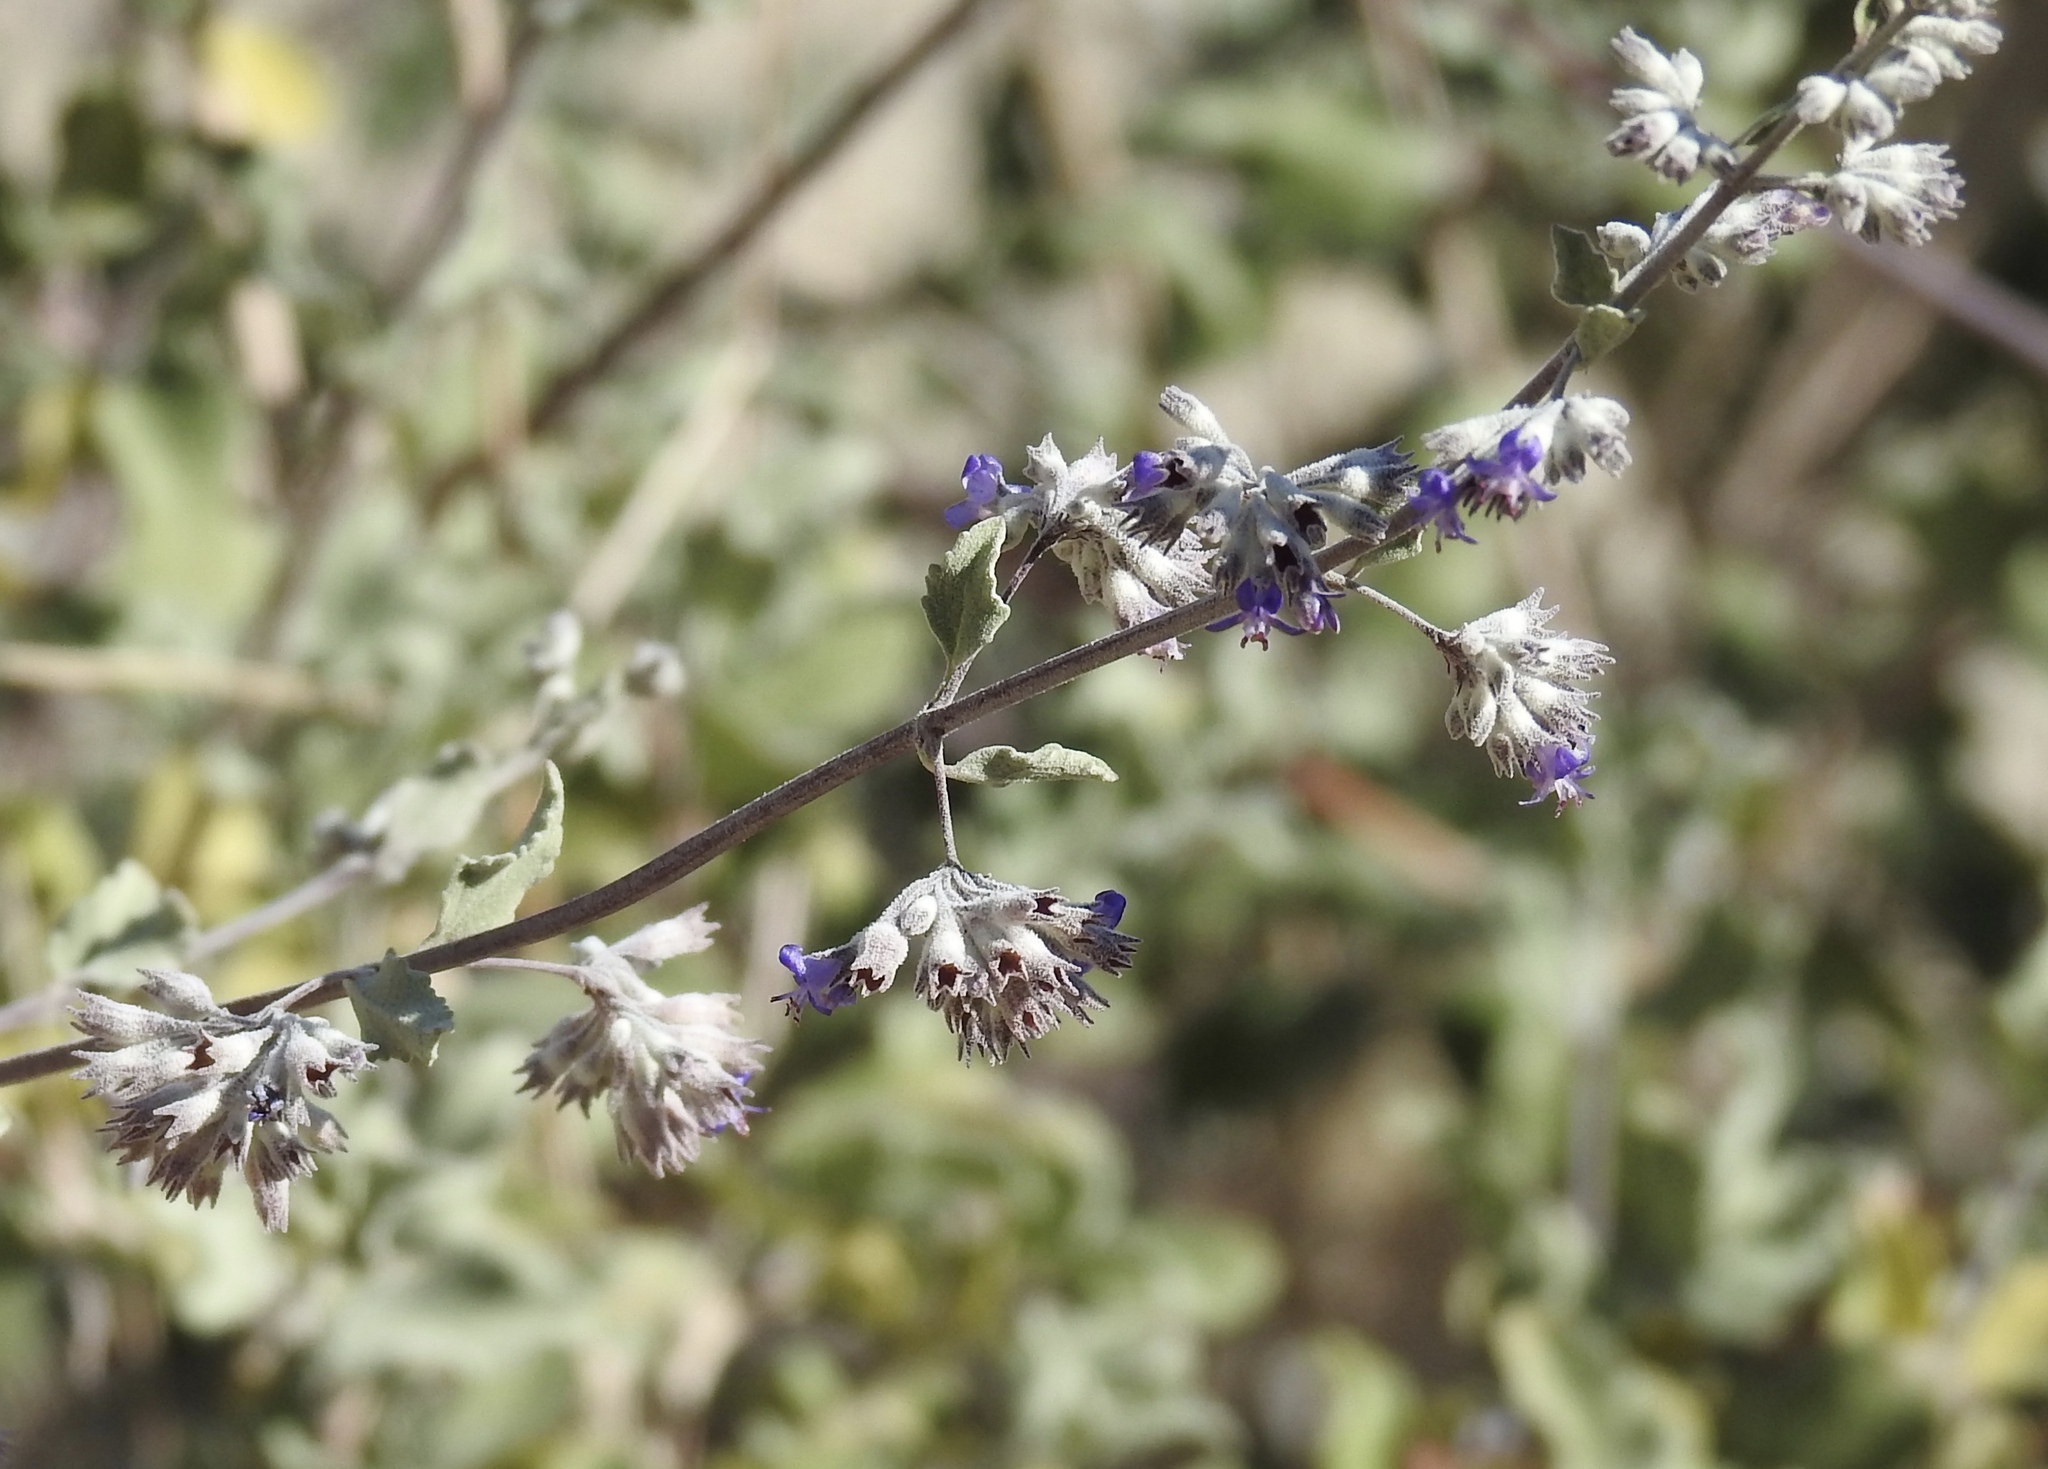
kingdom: Plantae
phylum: Tracheophyta
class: Magnoliopsida
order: Lamiales
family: Lamiaceae
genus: Condea
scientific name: Condea emoryi
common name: Chia
